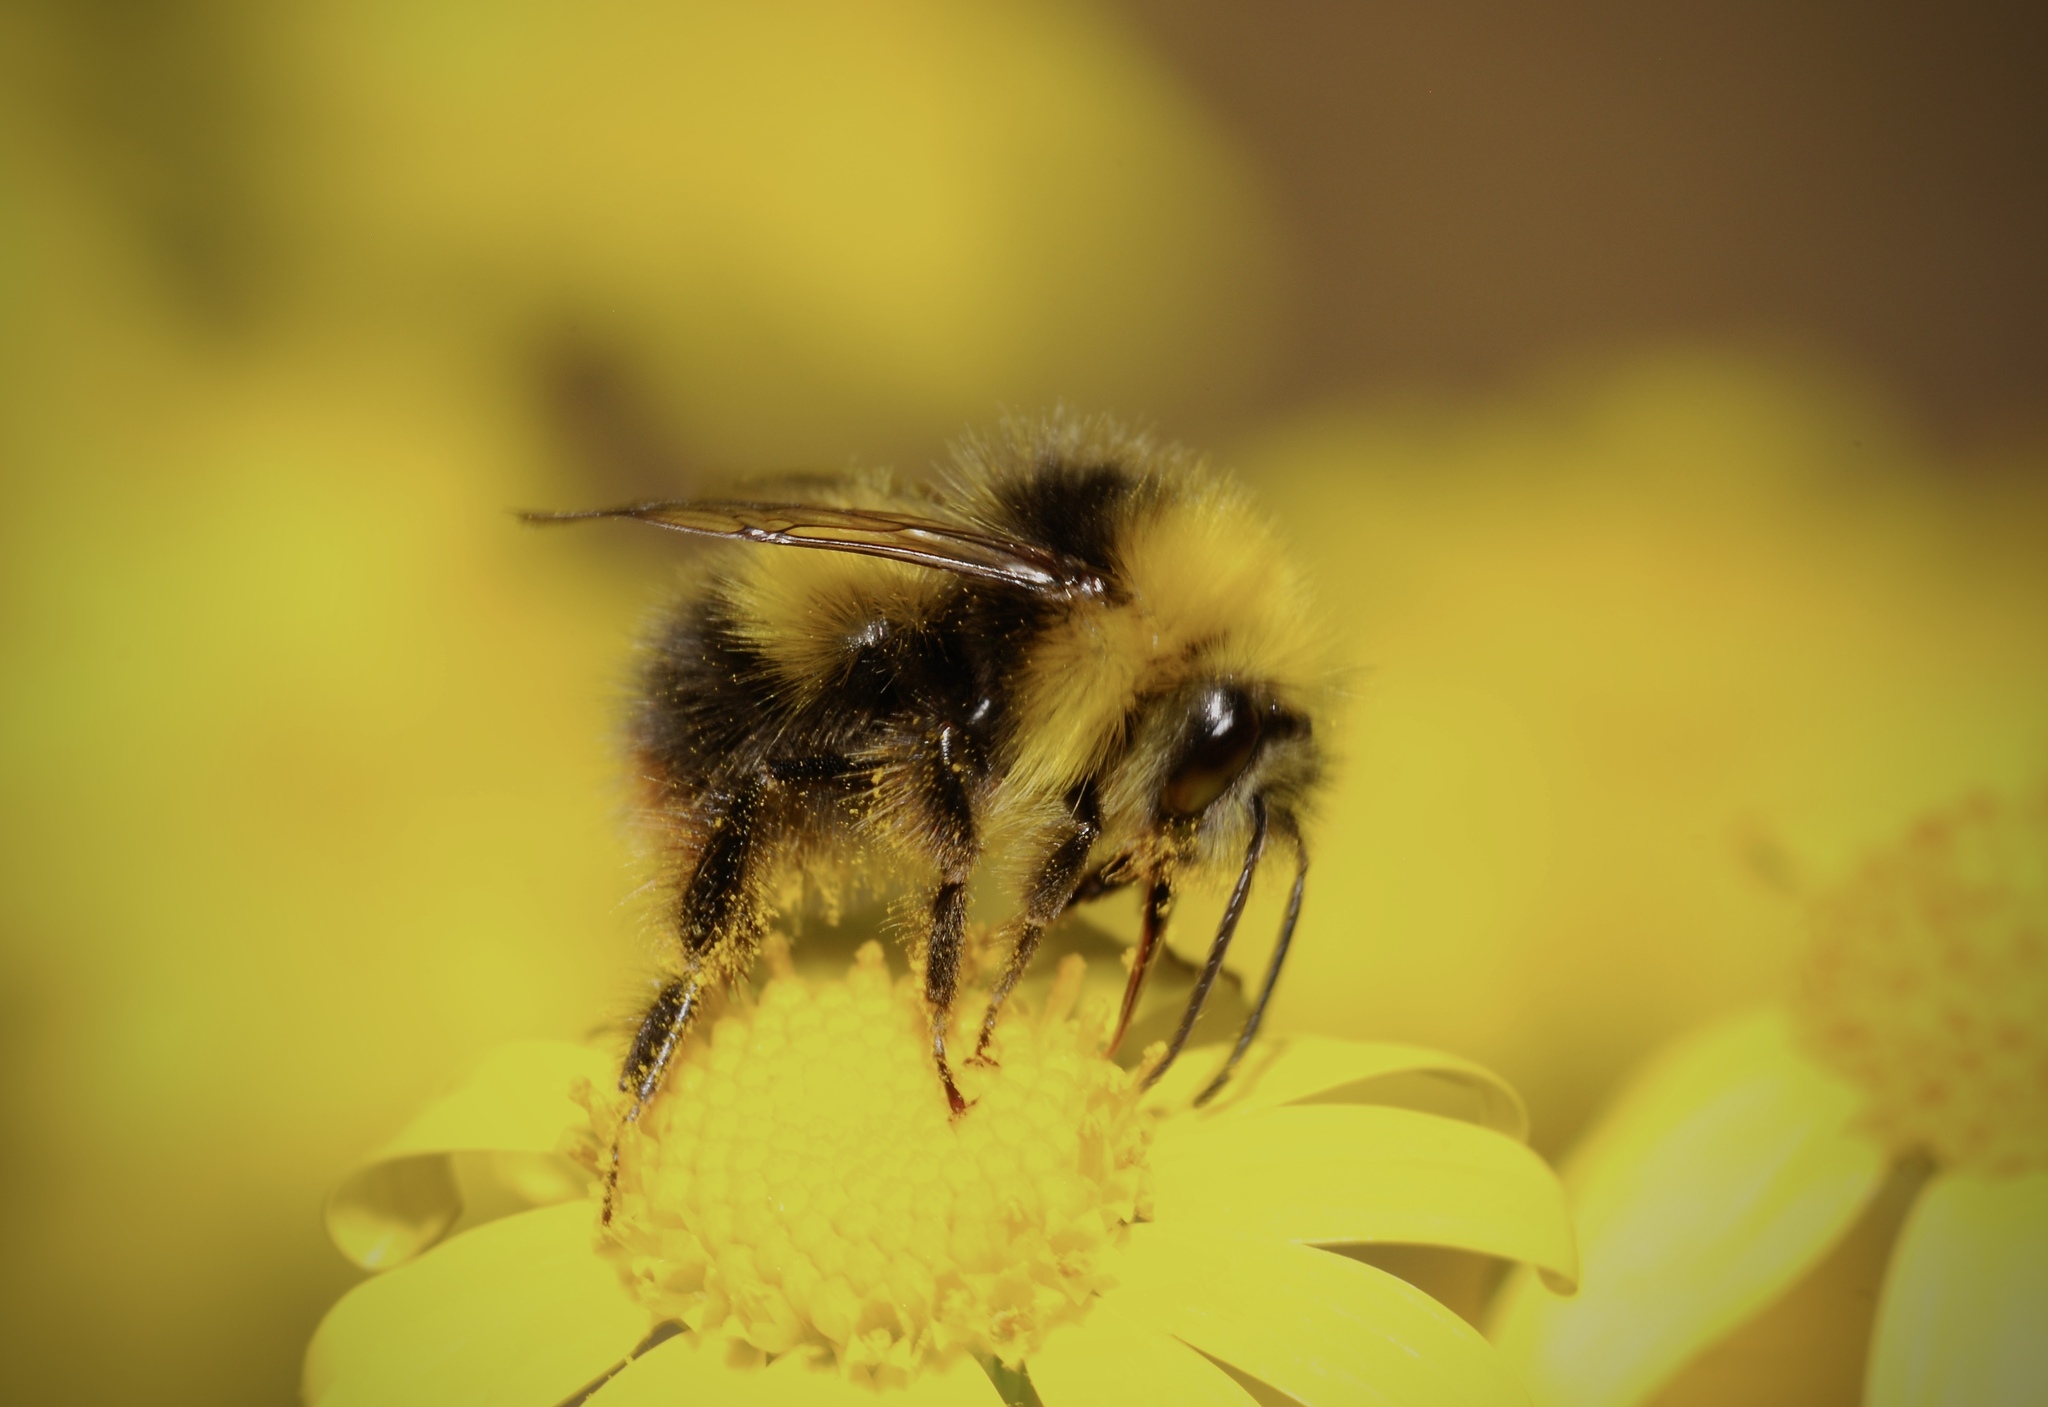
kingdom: Animalia
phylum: Arthropoda
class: Insecta
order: Hymenoptera
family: Apidae
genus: Bombus
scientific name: Bombus pratorum
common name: Early humble-bee
